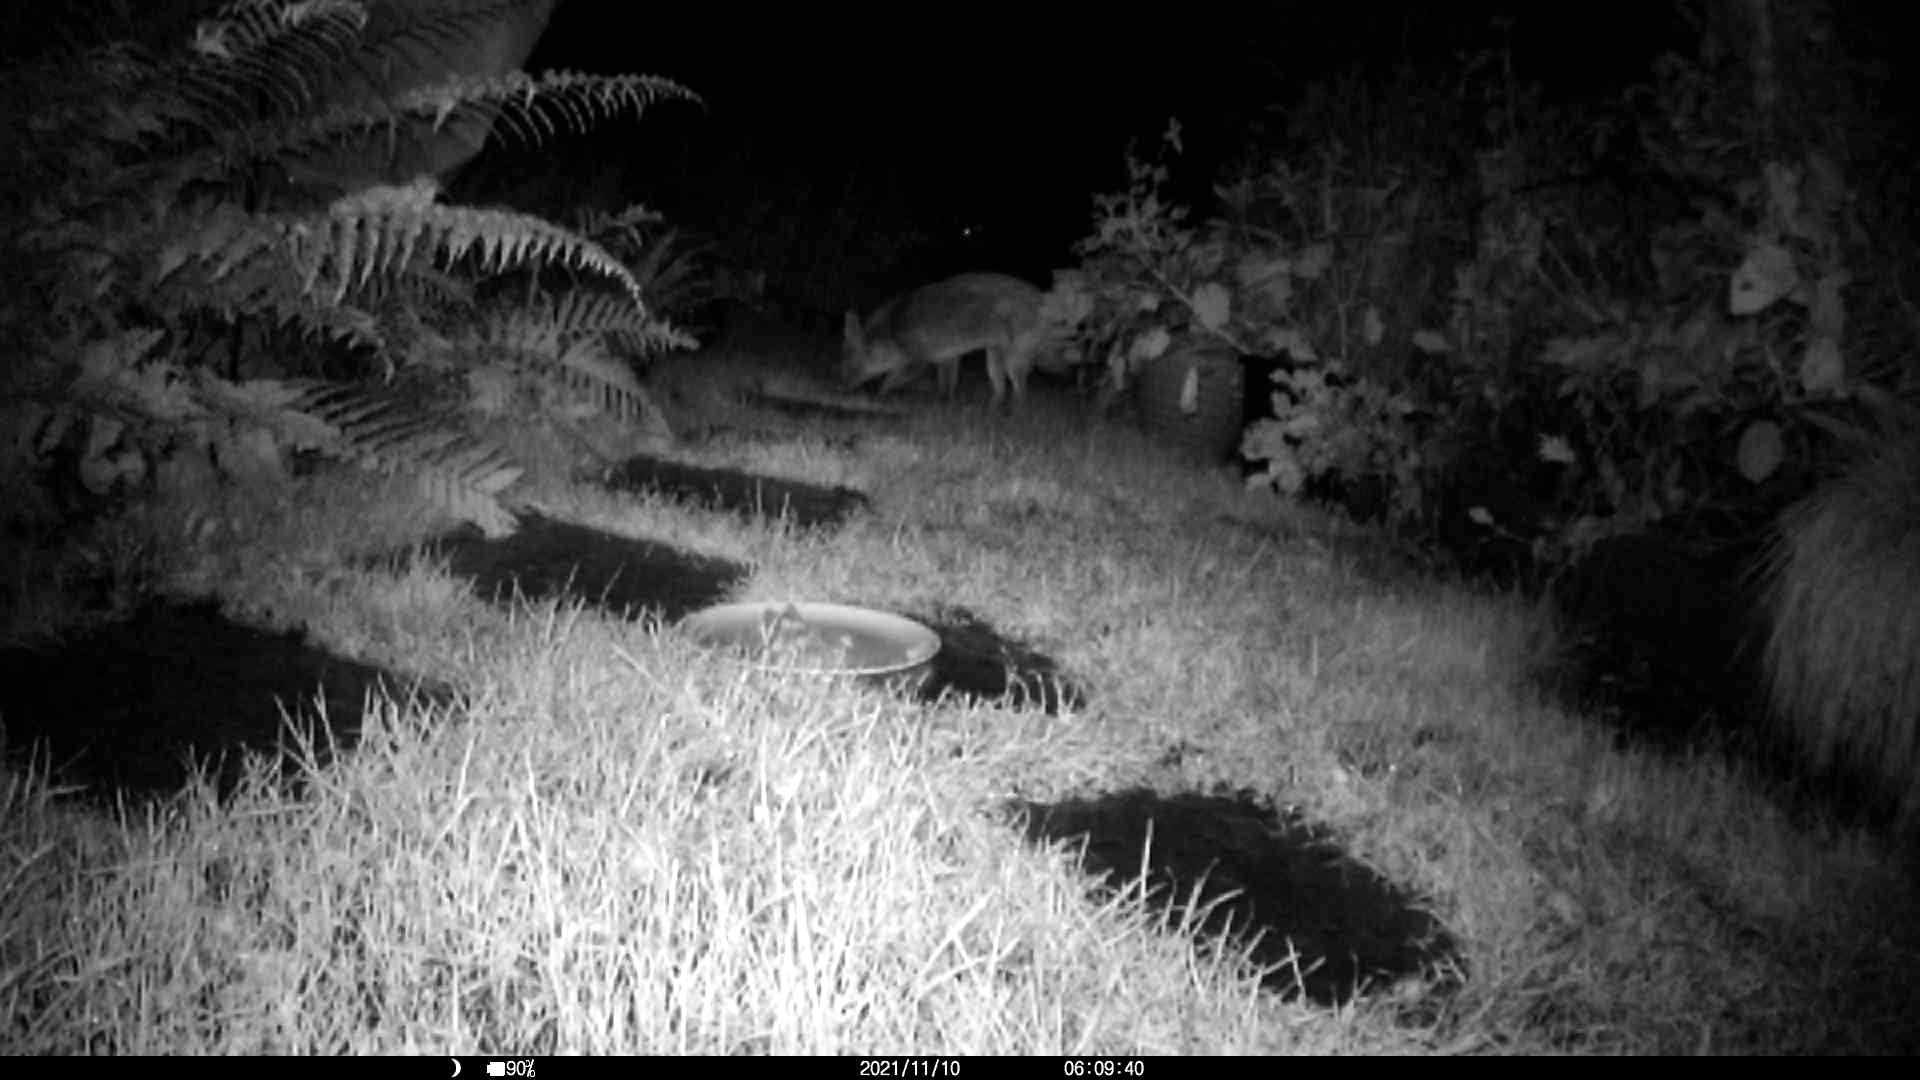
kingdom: Animalia
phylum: Chordata
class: Mammalia
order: Carnivora
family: Canidae
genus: Vulpes
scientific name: Vulpes vulpes
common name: Red fox
